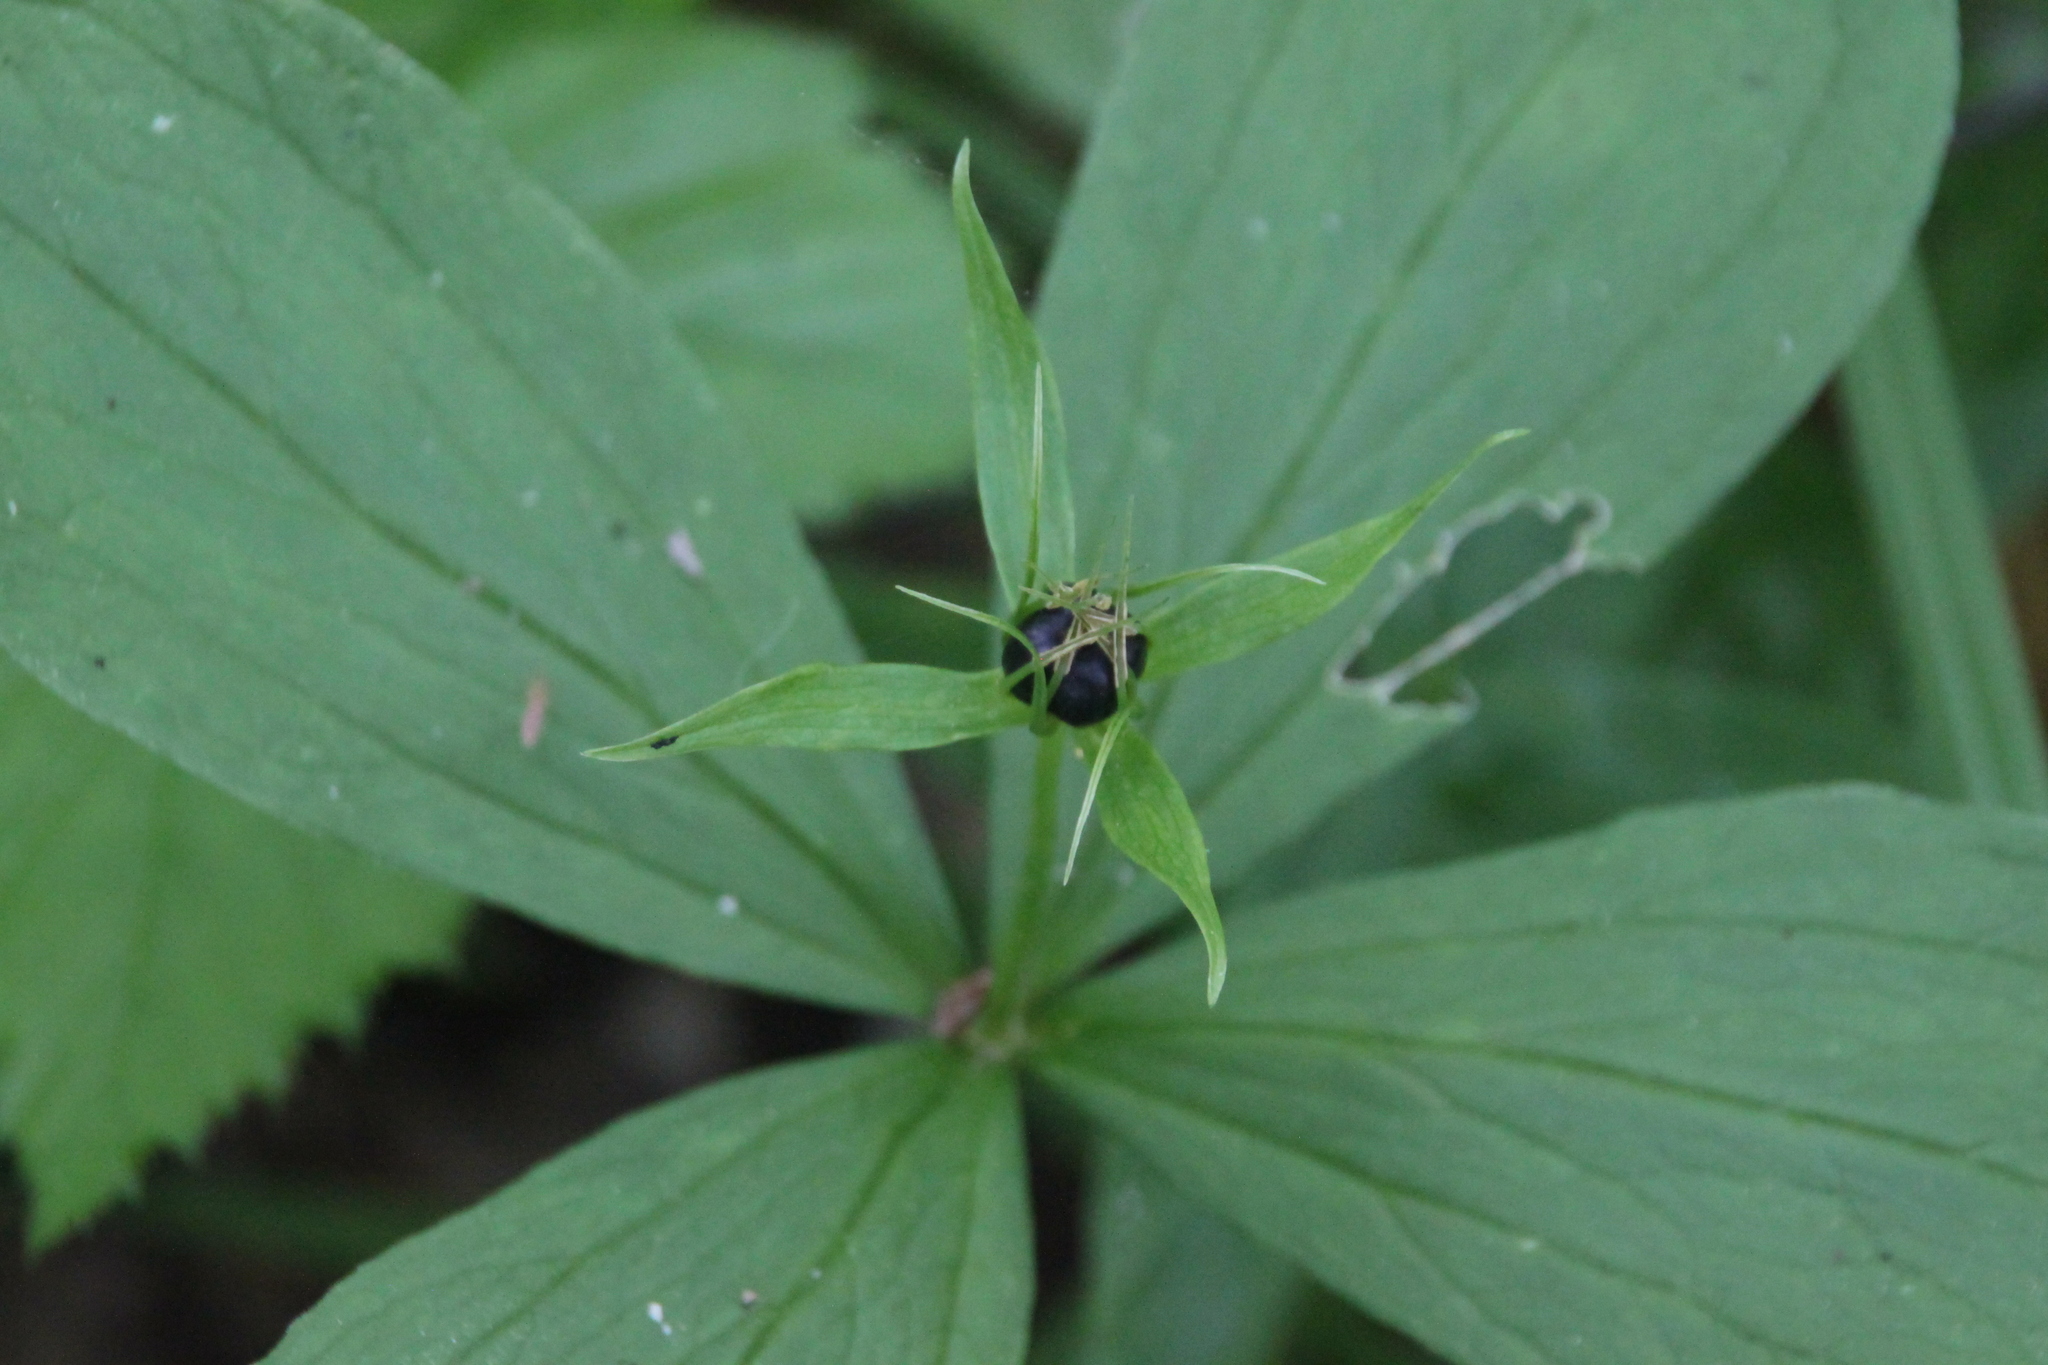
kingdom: Plantae
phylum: Tracheophyta
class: Liliopsida
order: Liliales
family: Melanthiaceae
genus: Paris
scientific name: Paris quadrifolia
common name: Herb-paris
